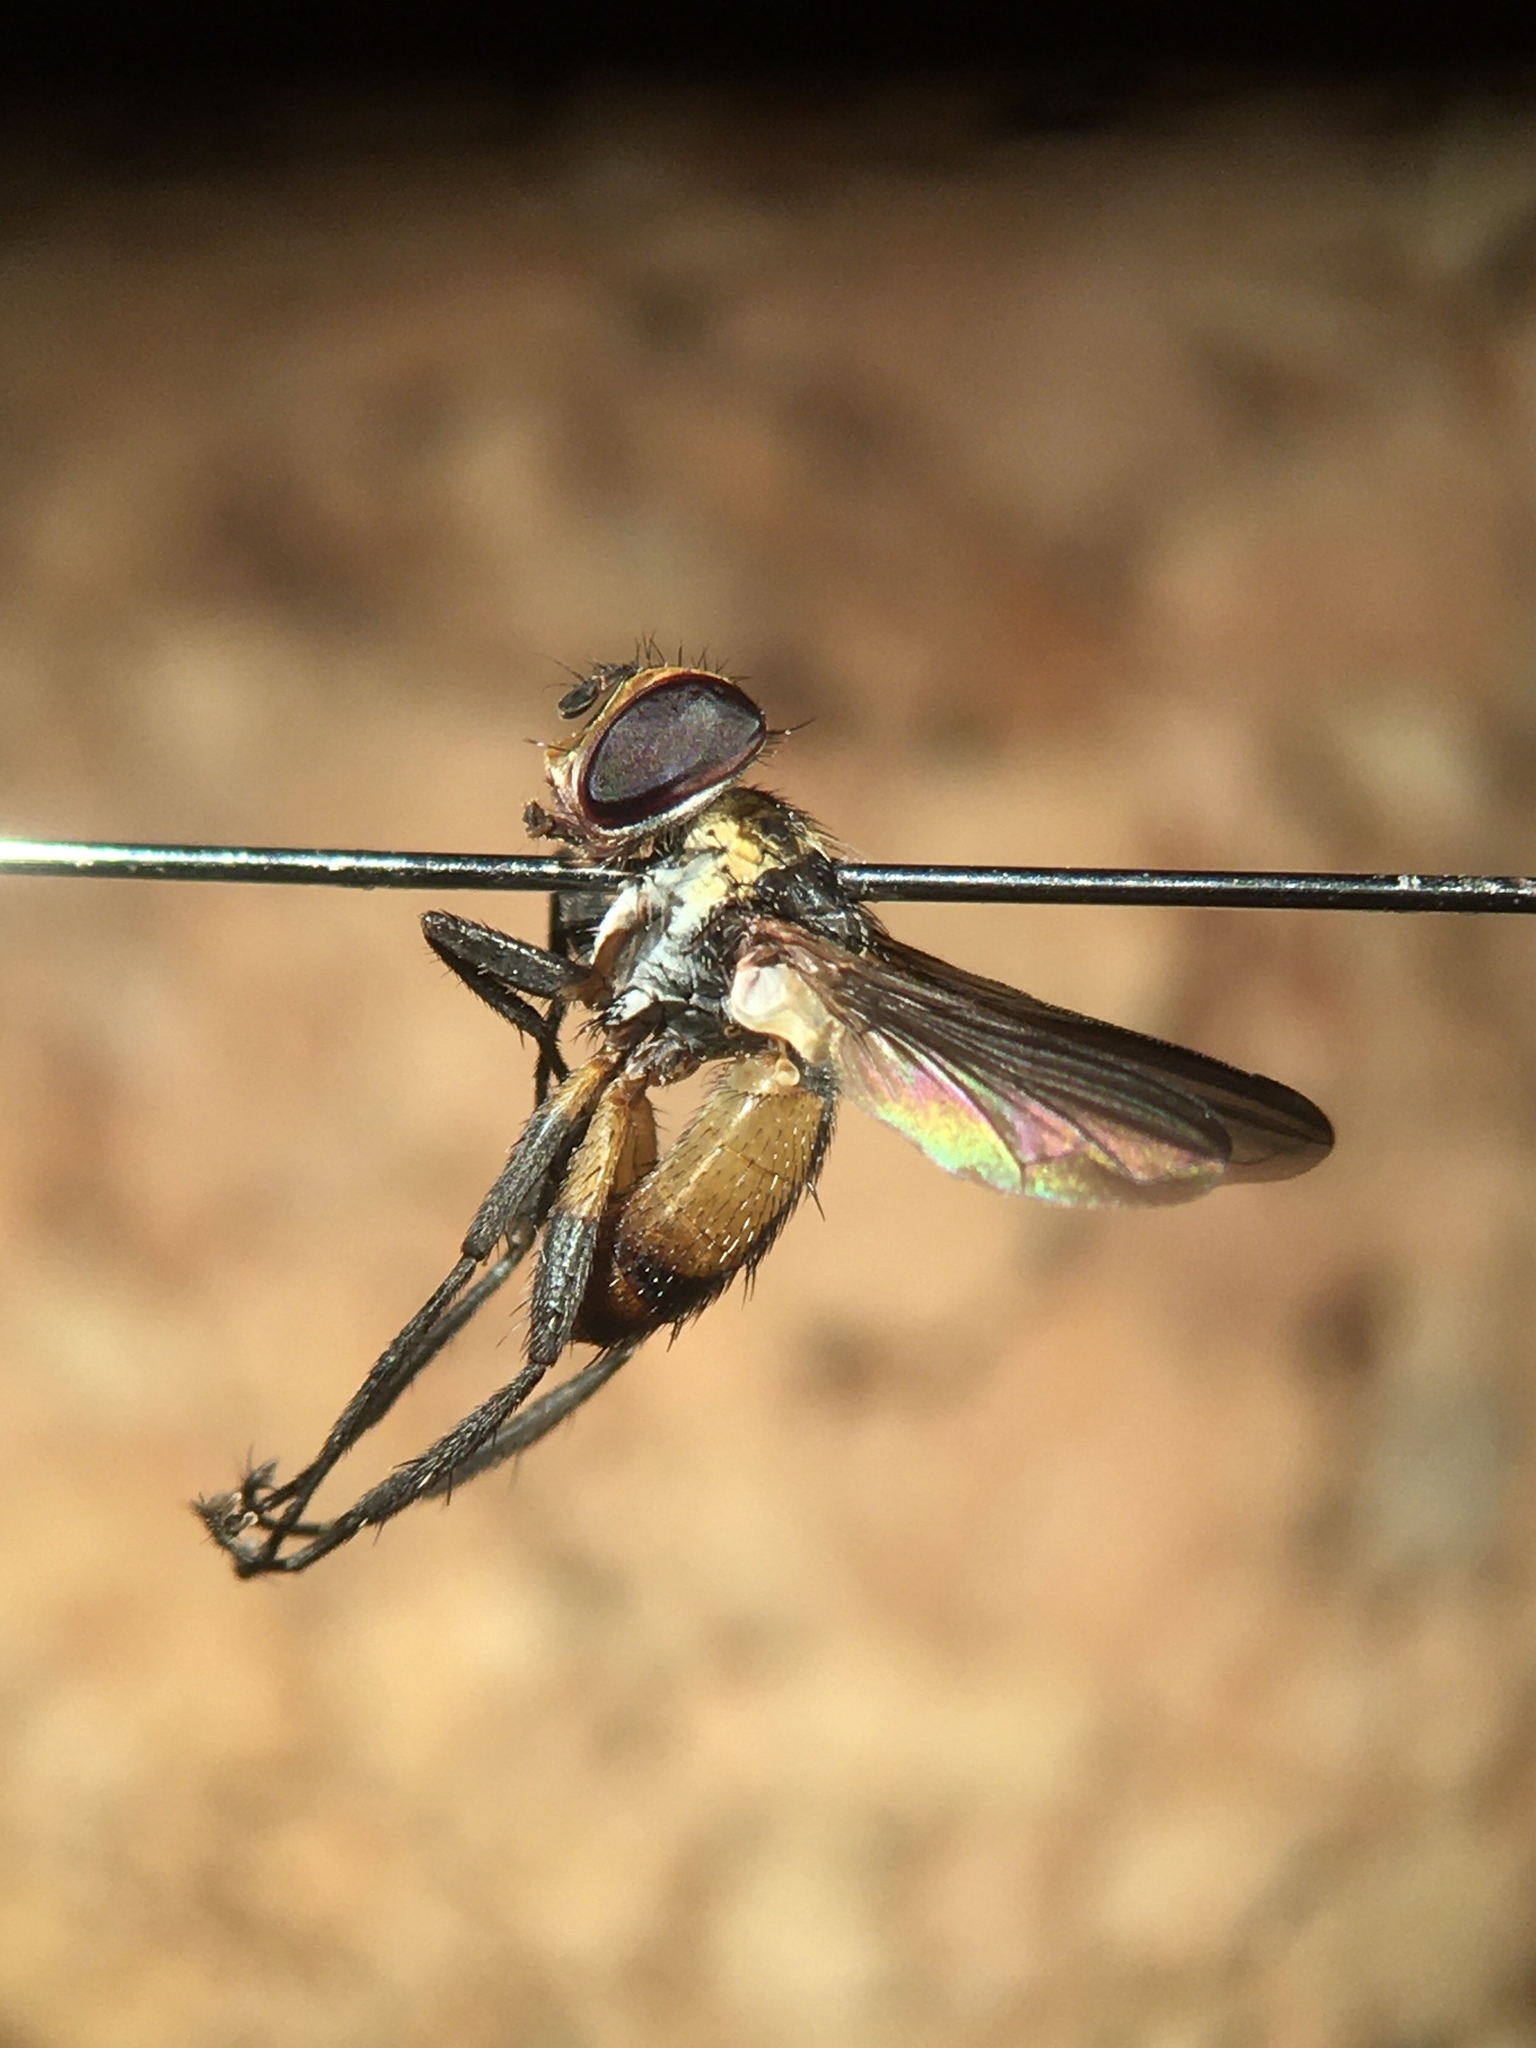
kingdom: Animalia
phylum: Arthropoda
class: Insecta
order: Diptera
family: Tachinidae
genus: Xanthomelanodes
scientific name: Xanthomelanodes arcuatus
